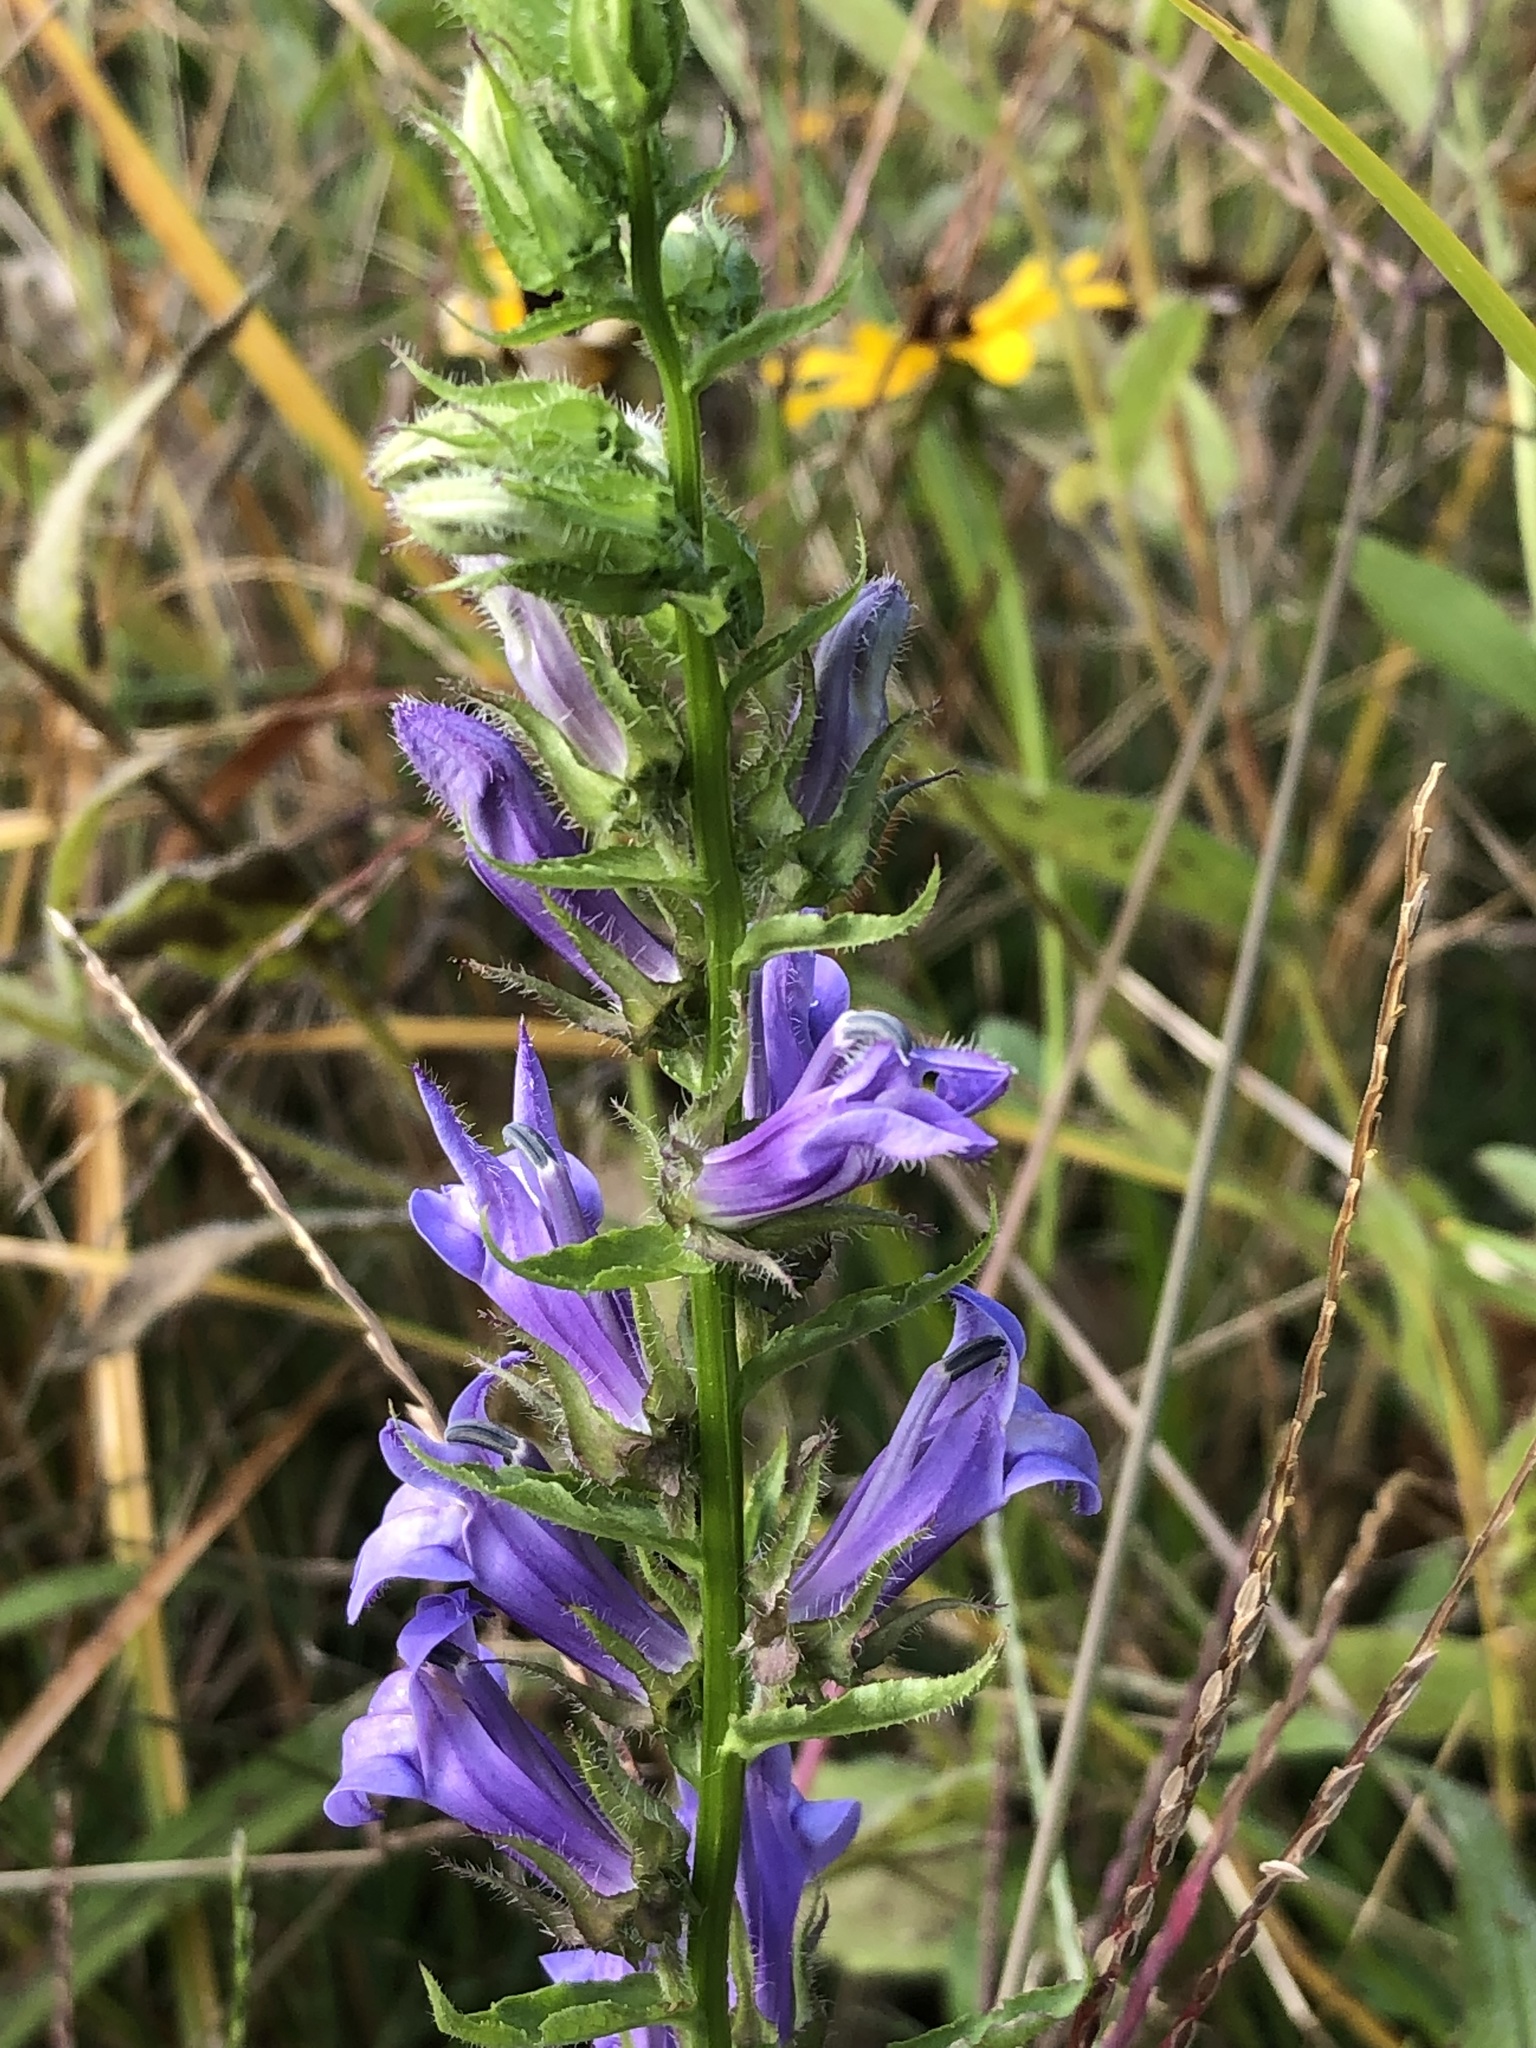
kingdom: Plantae
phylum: Tracheophyta
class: Magnoliopsida
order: Asterales
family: Campanulaceae
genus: Lobelia
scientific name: Lobelia siphilitica
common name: Great lobelia
